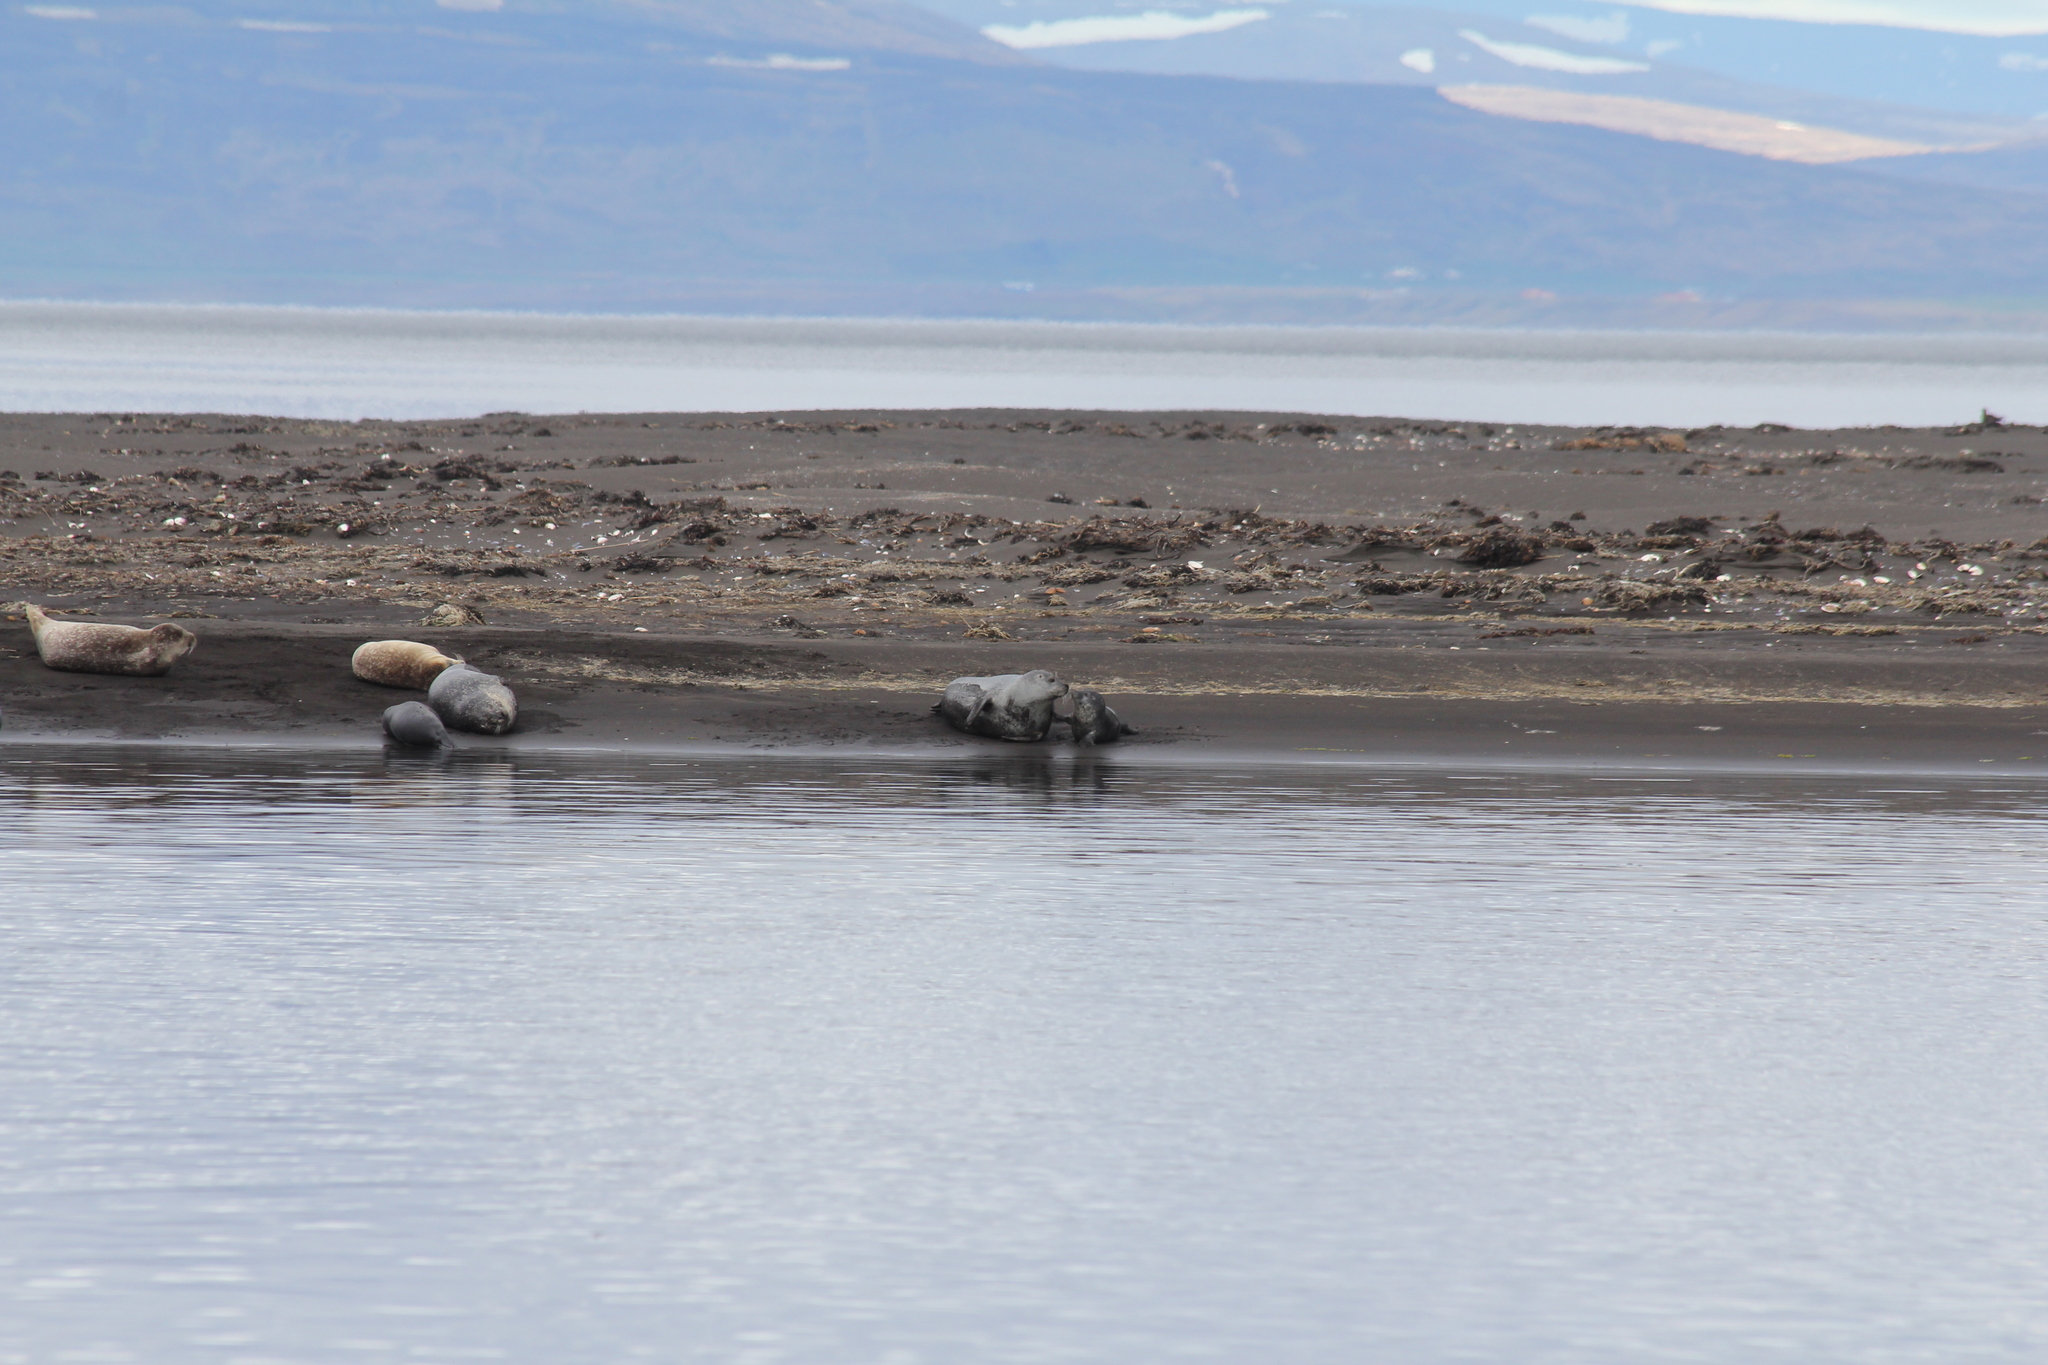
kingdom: Animalia
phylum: Chordata
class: Mammalia
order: Carnivora
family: Phocidae
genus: Phoca
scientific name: Phoca vitulina
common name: Harbor seal
